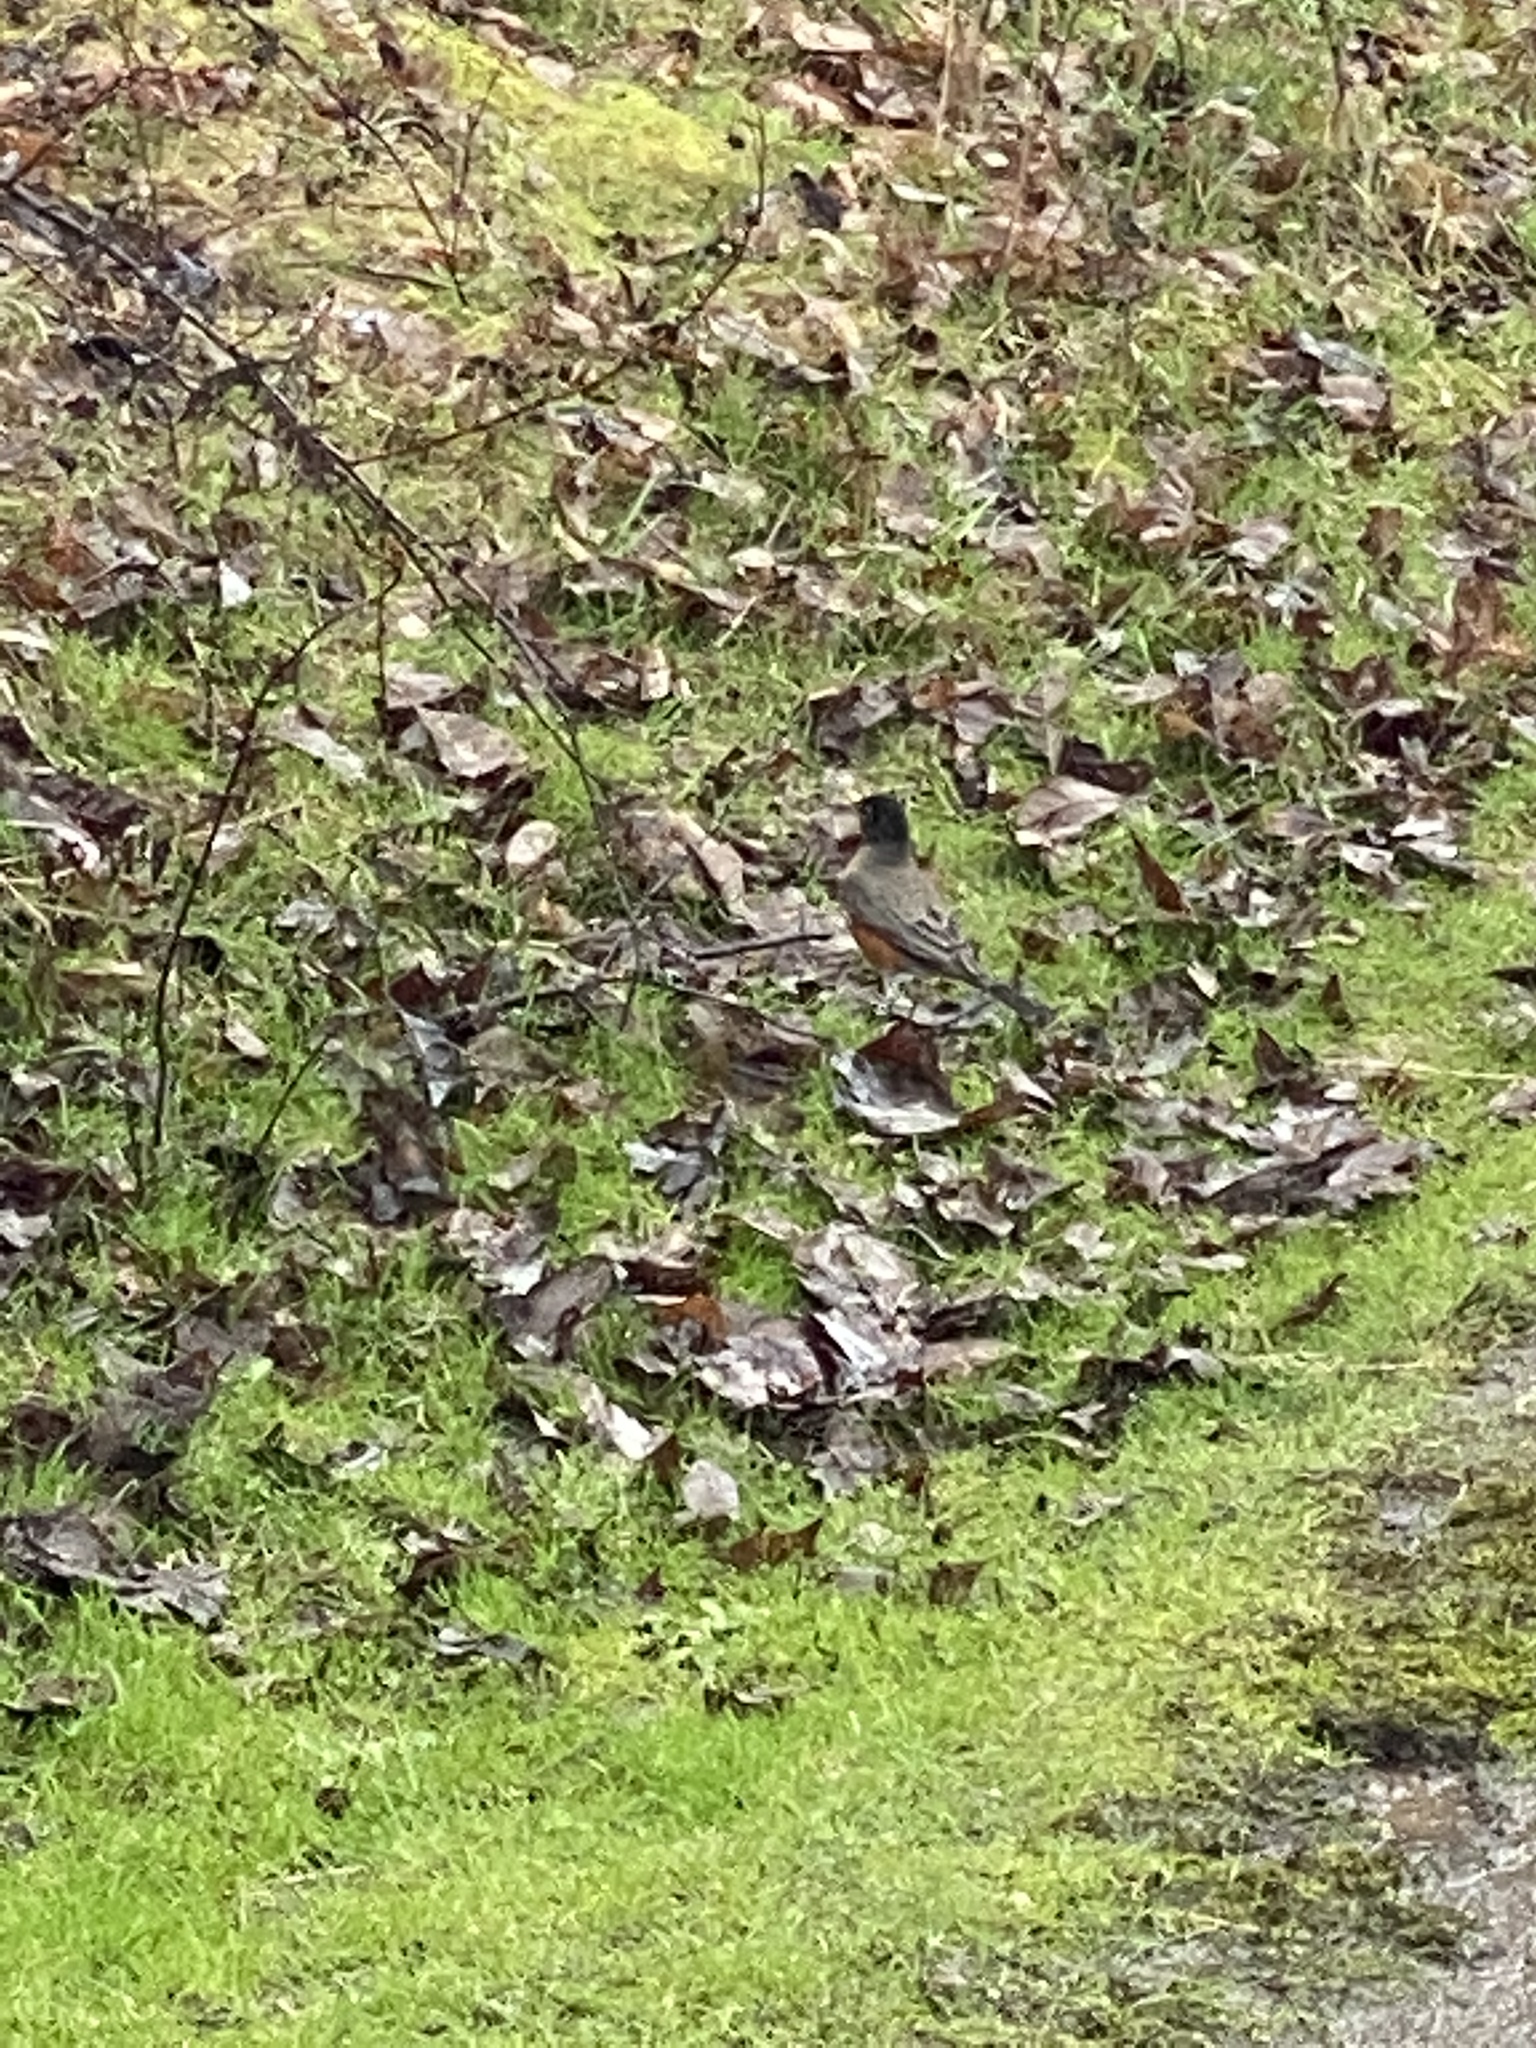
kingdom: Animalia
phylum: Chordata
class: Aves
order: Passeriformes
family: Turdidae
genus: Turdus
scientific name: Turdus migratorius
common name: American robin
